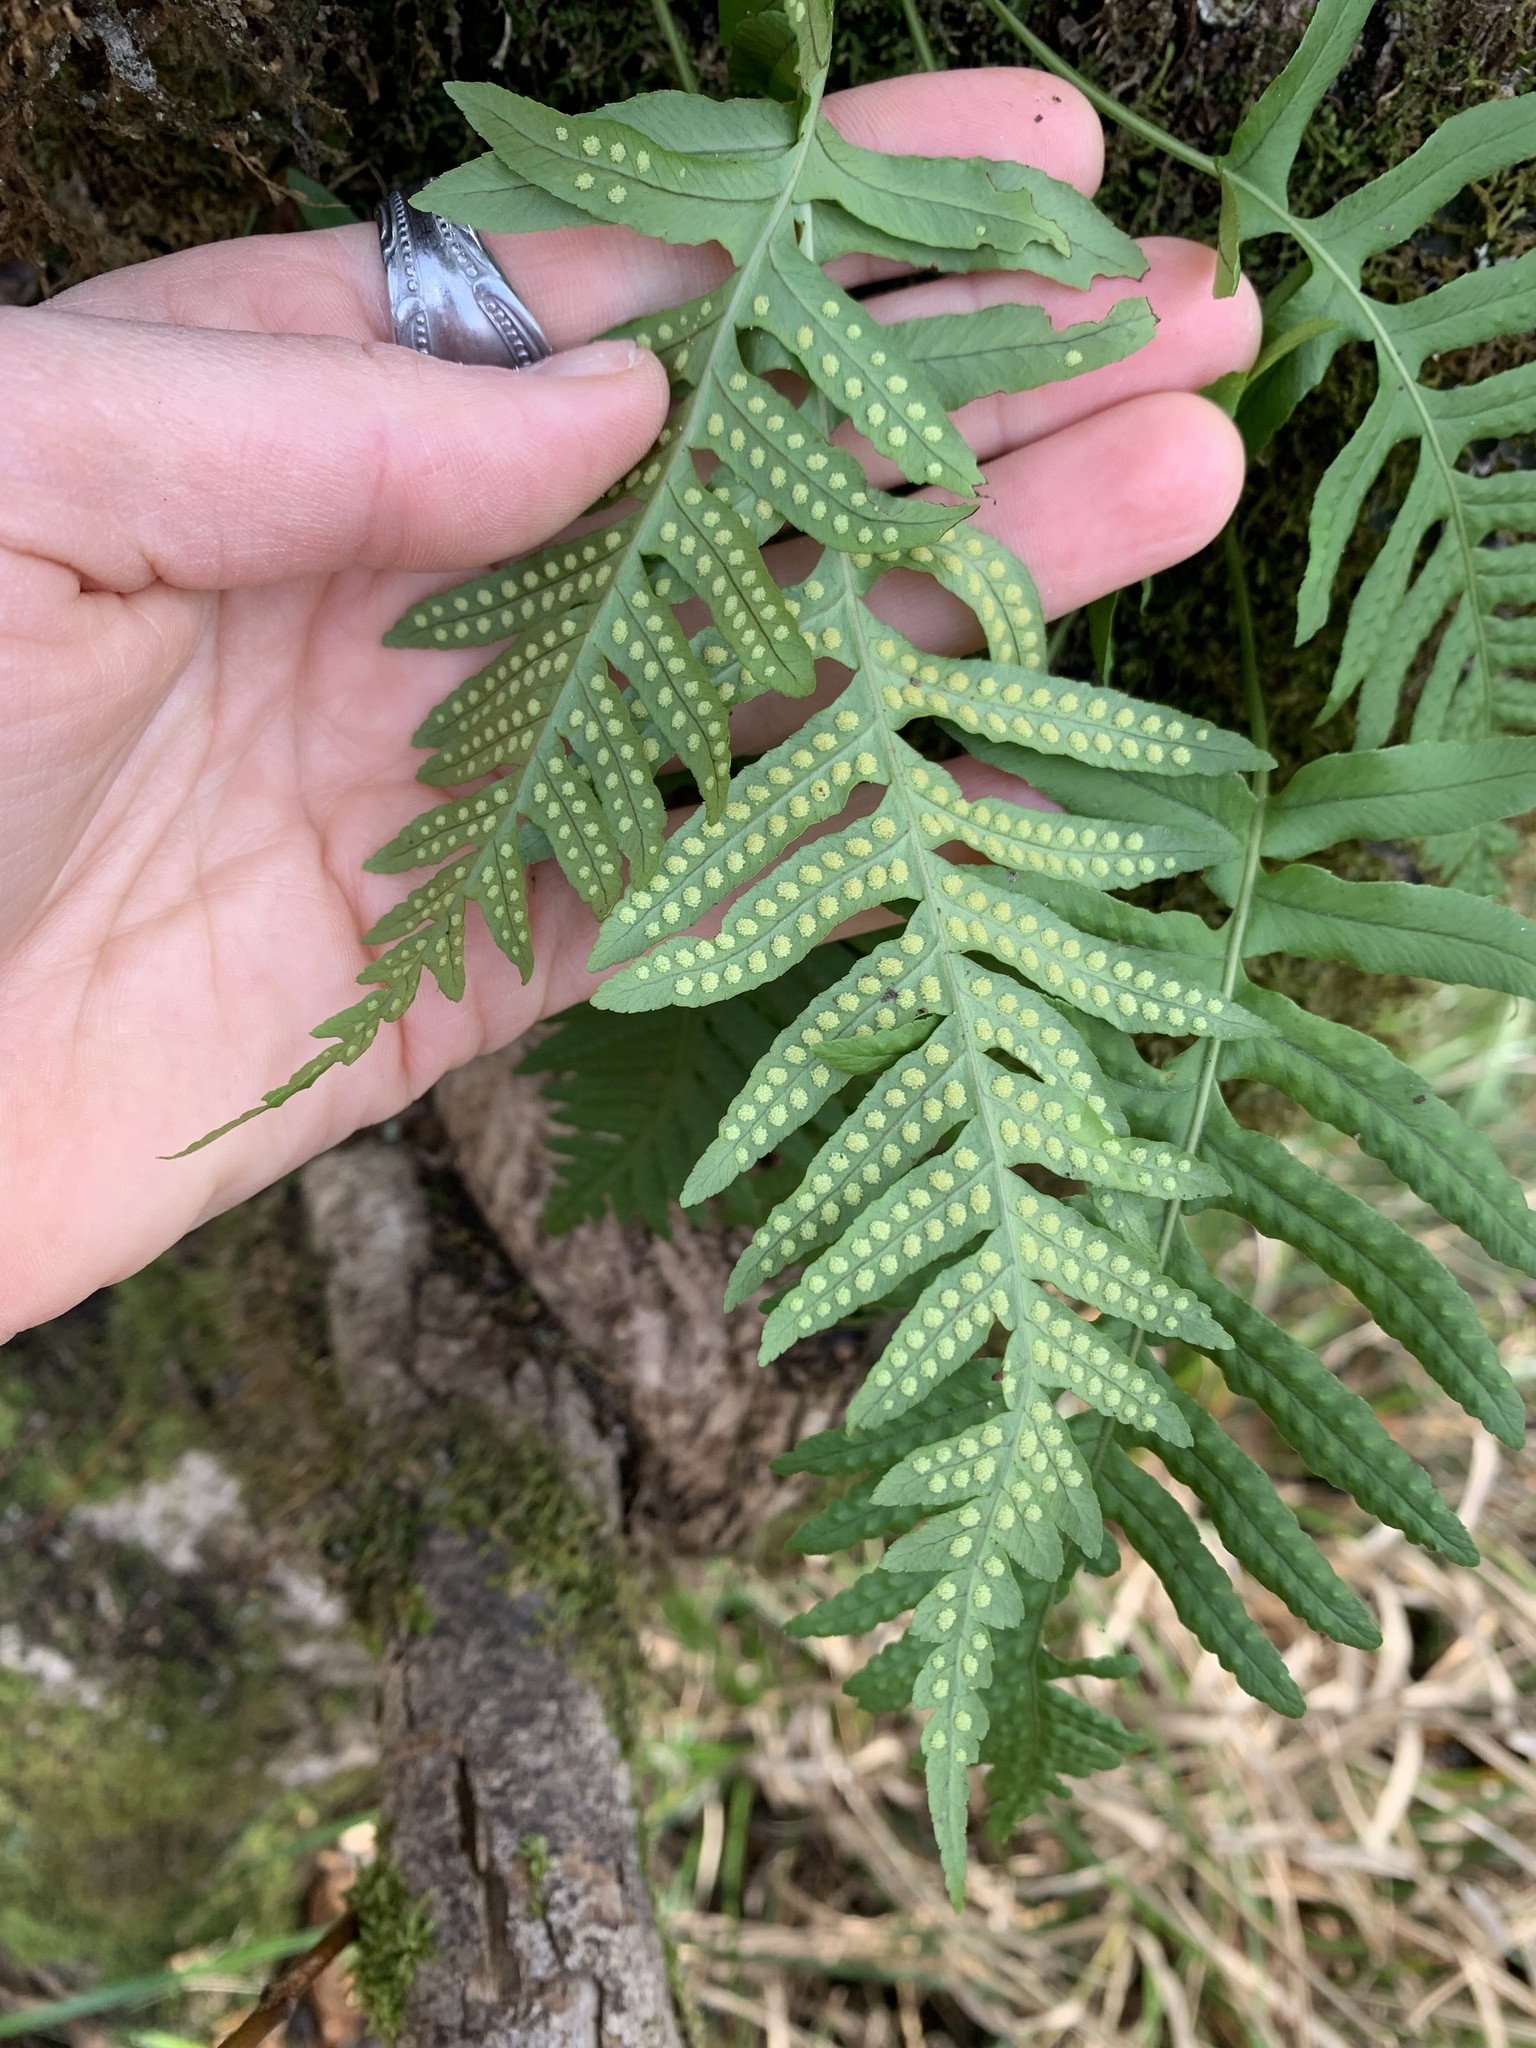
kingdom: Plantae
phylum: Tracheophyta
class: Polypodiopsida
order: Polypodiales
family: Polypodiaceae
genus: Polypodium
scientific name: Polypodium glycyrrhiza
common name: Licorice fern
